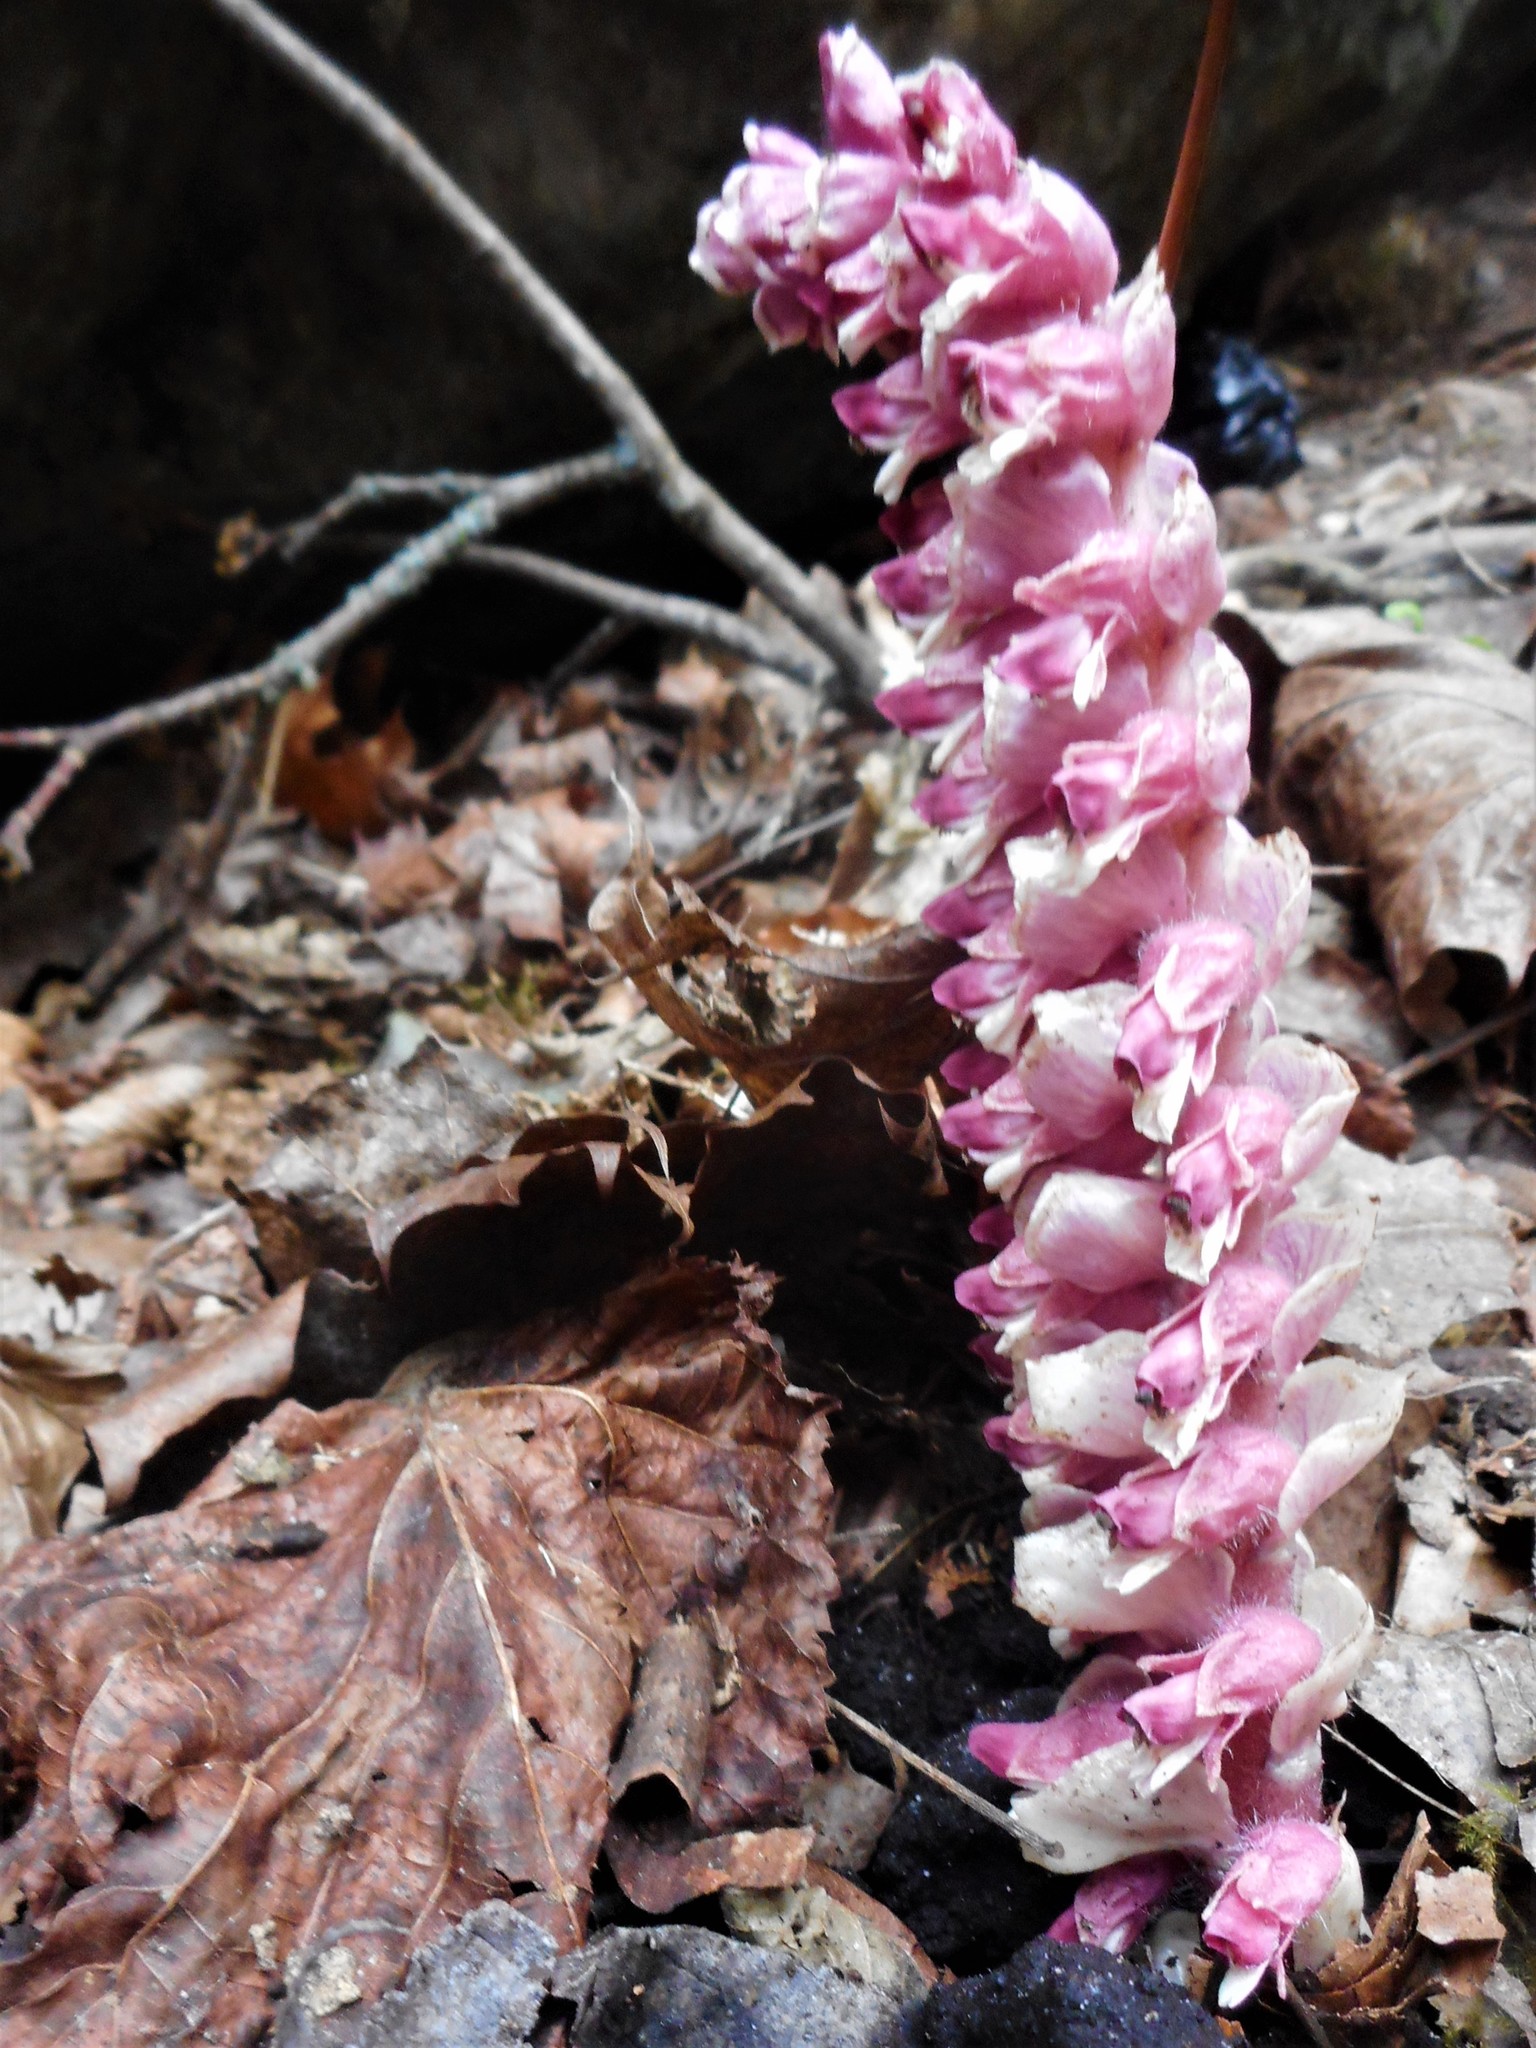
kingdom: Plantae
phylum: Tracheophyta
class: Magnoliopsida
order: Lamiales
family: Orobanchaceae
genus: Lathraea
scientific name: Lathraea squamaria
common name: Toothwort
